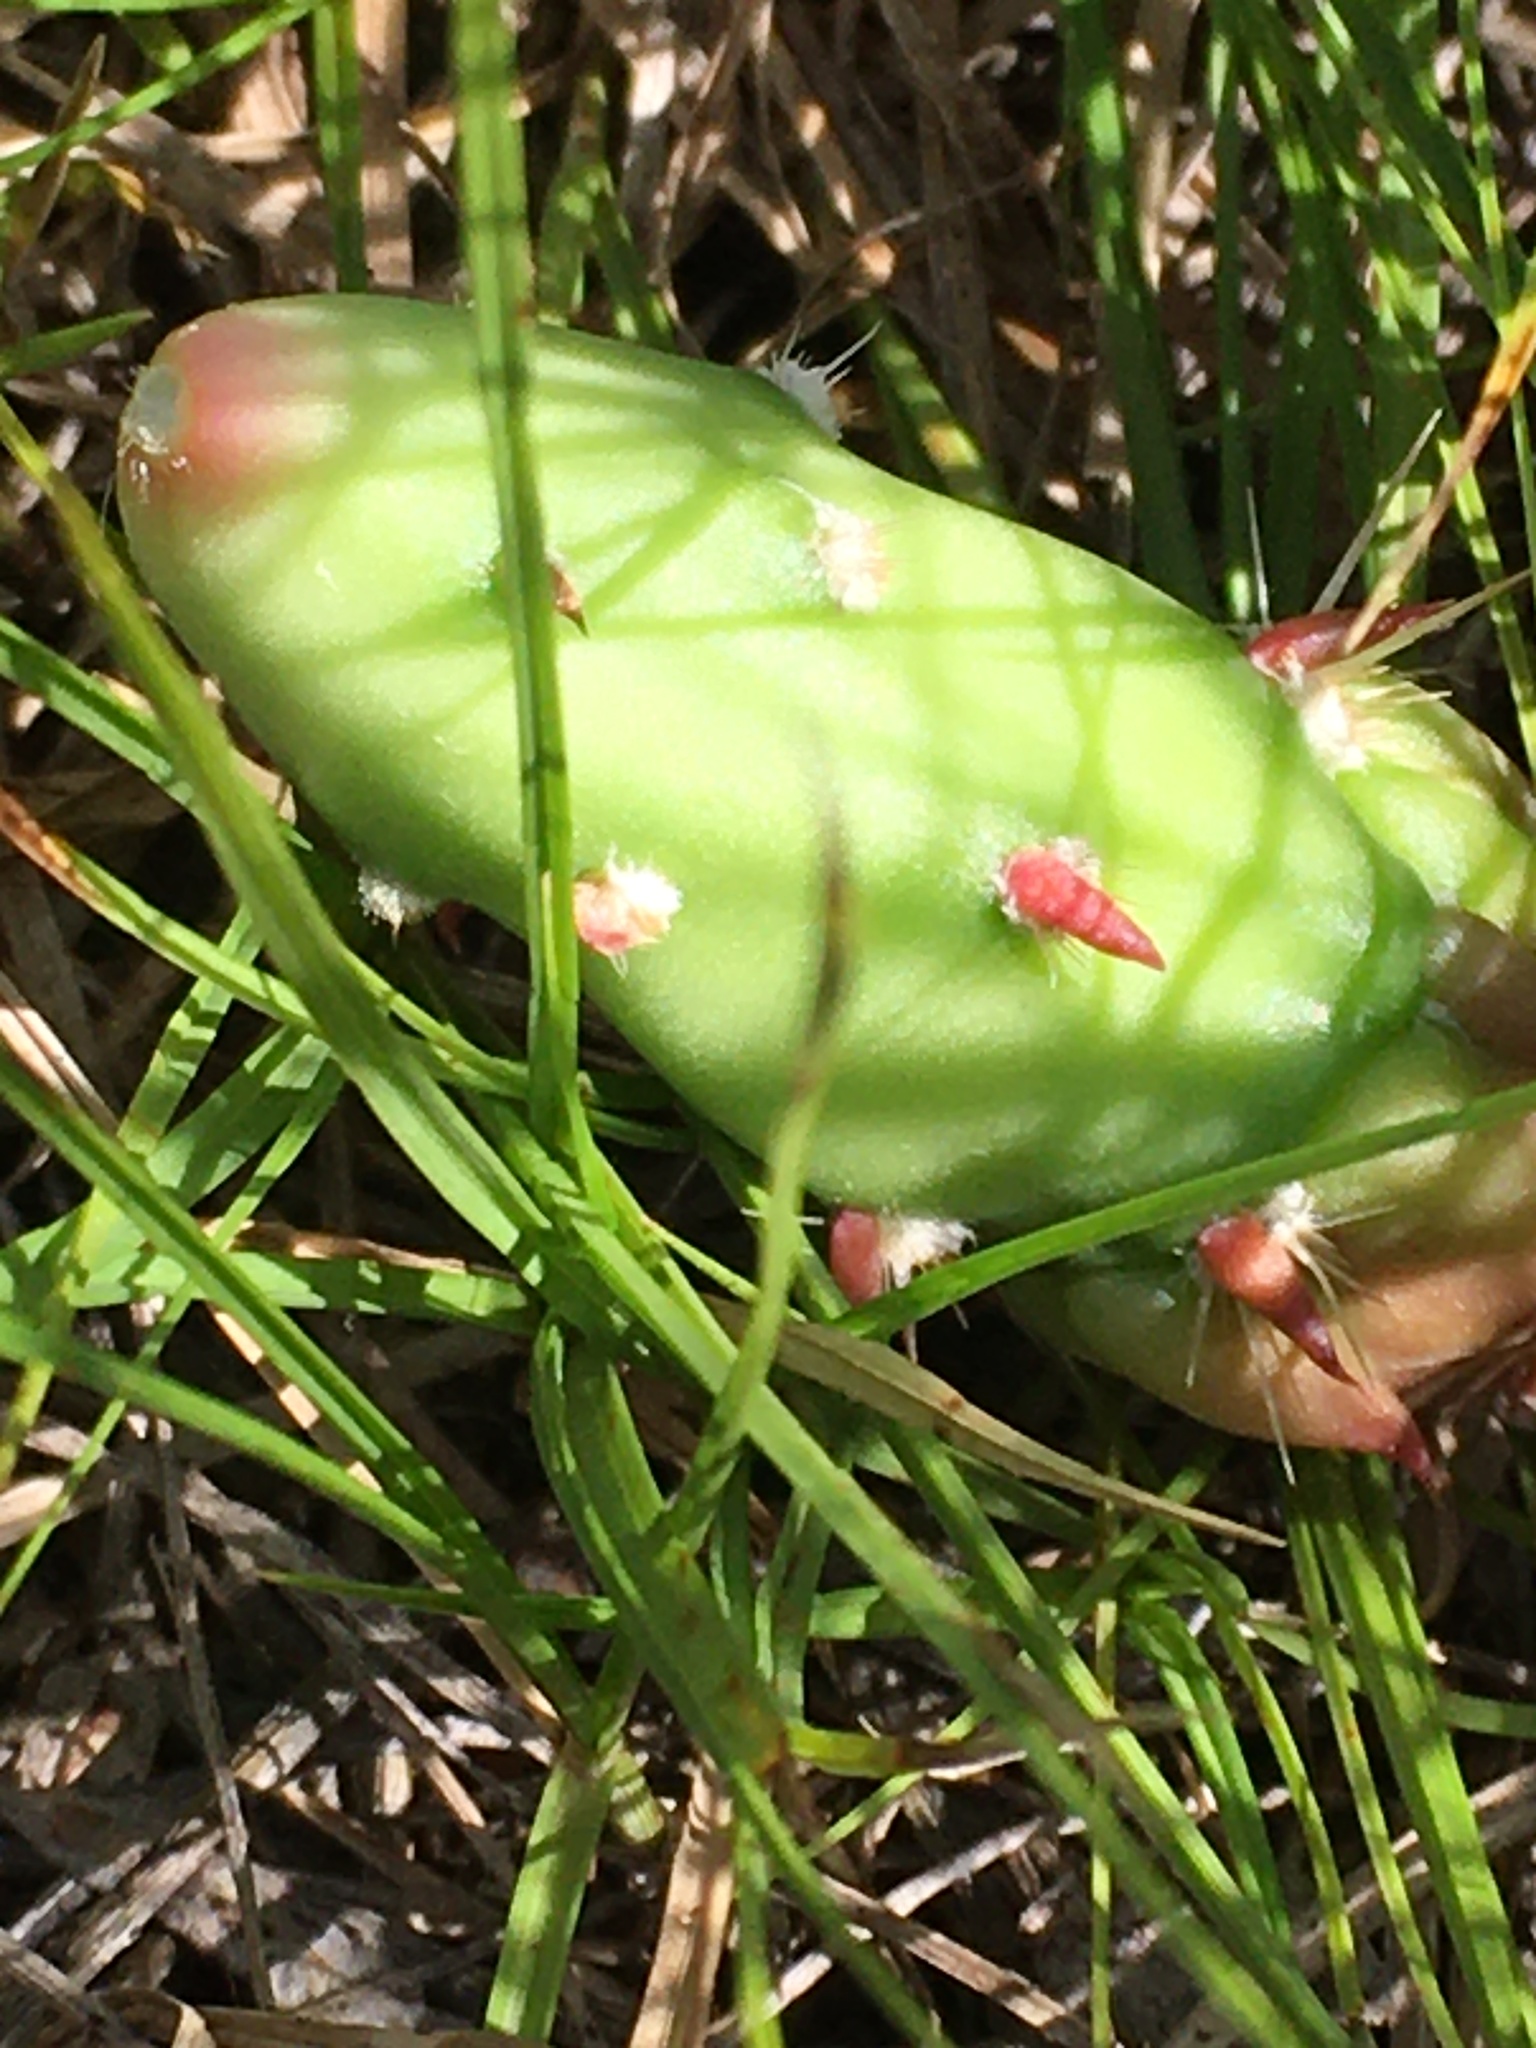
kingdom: Plantae
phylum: Tracheophyta
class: Magnoliopsida
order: Caryophyllales
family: Cactaceae
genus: Opuntia
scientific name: Opuntia fragilis
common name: Brittle cactus
